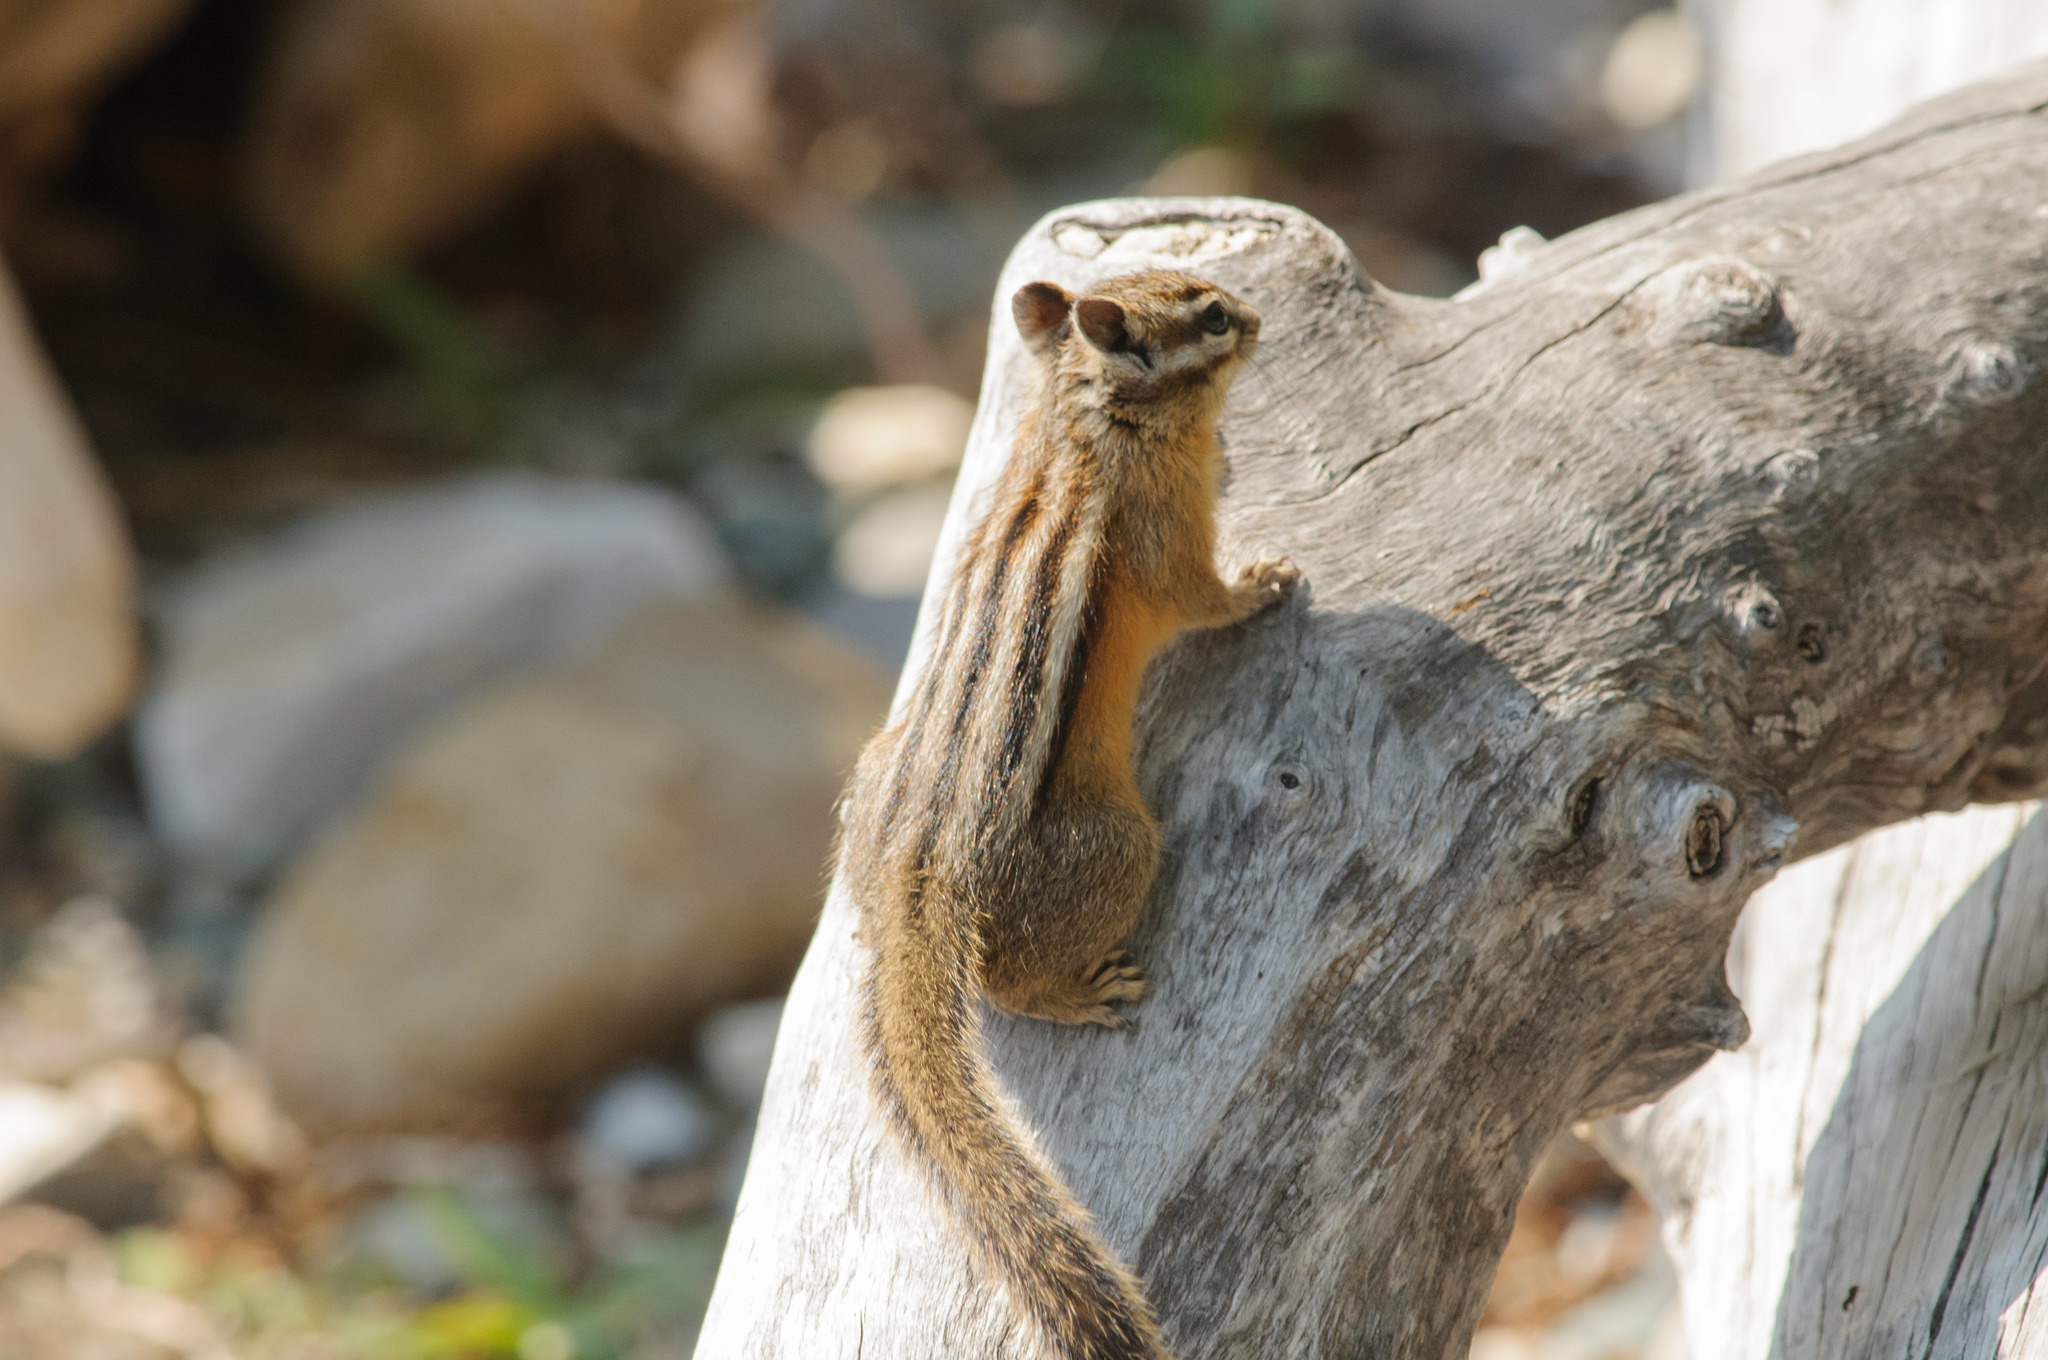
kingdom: Animalia
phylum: Chordata
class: Mammalia
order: Rodentia
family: Sciuridae
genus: Tamias
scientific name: Tamias minimus
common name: Least chipmunk
